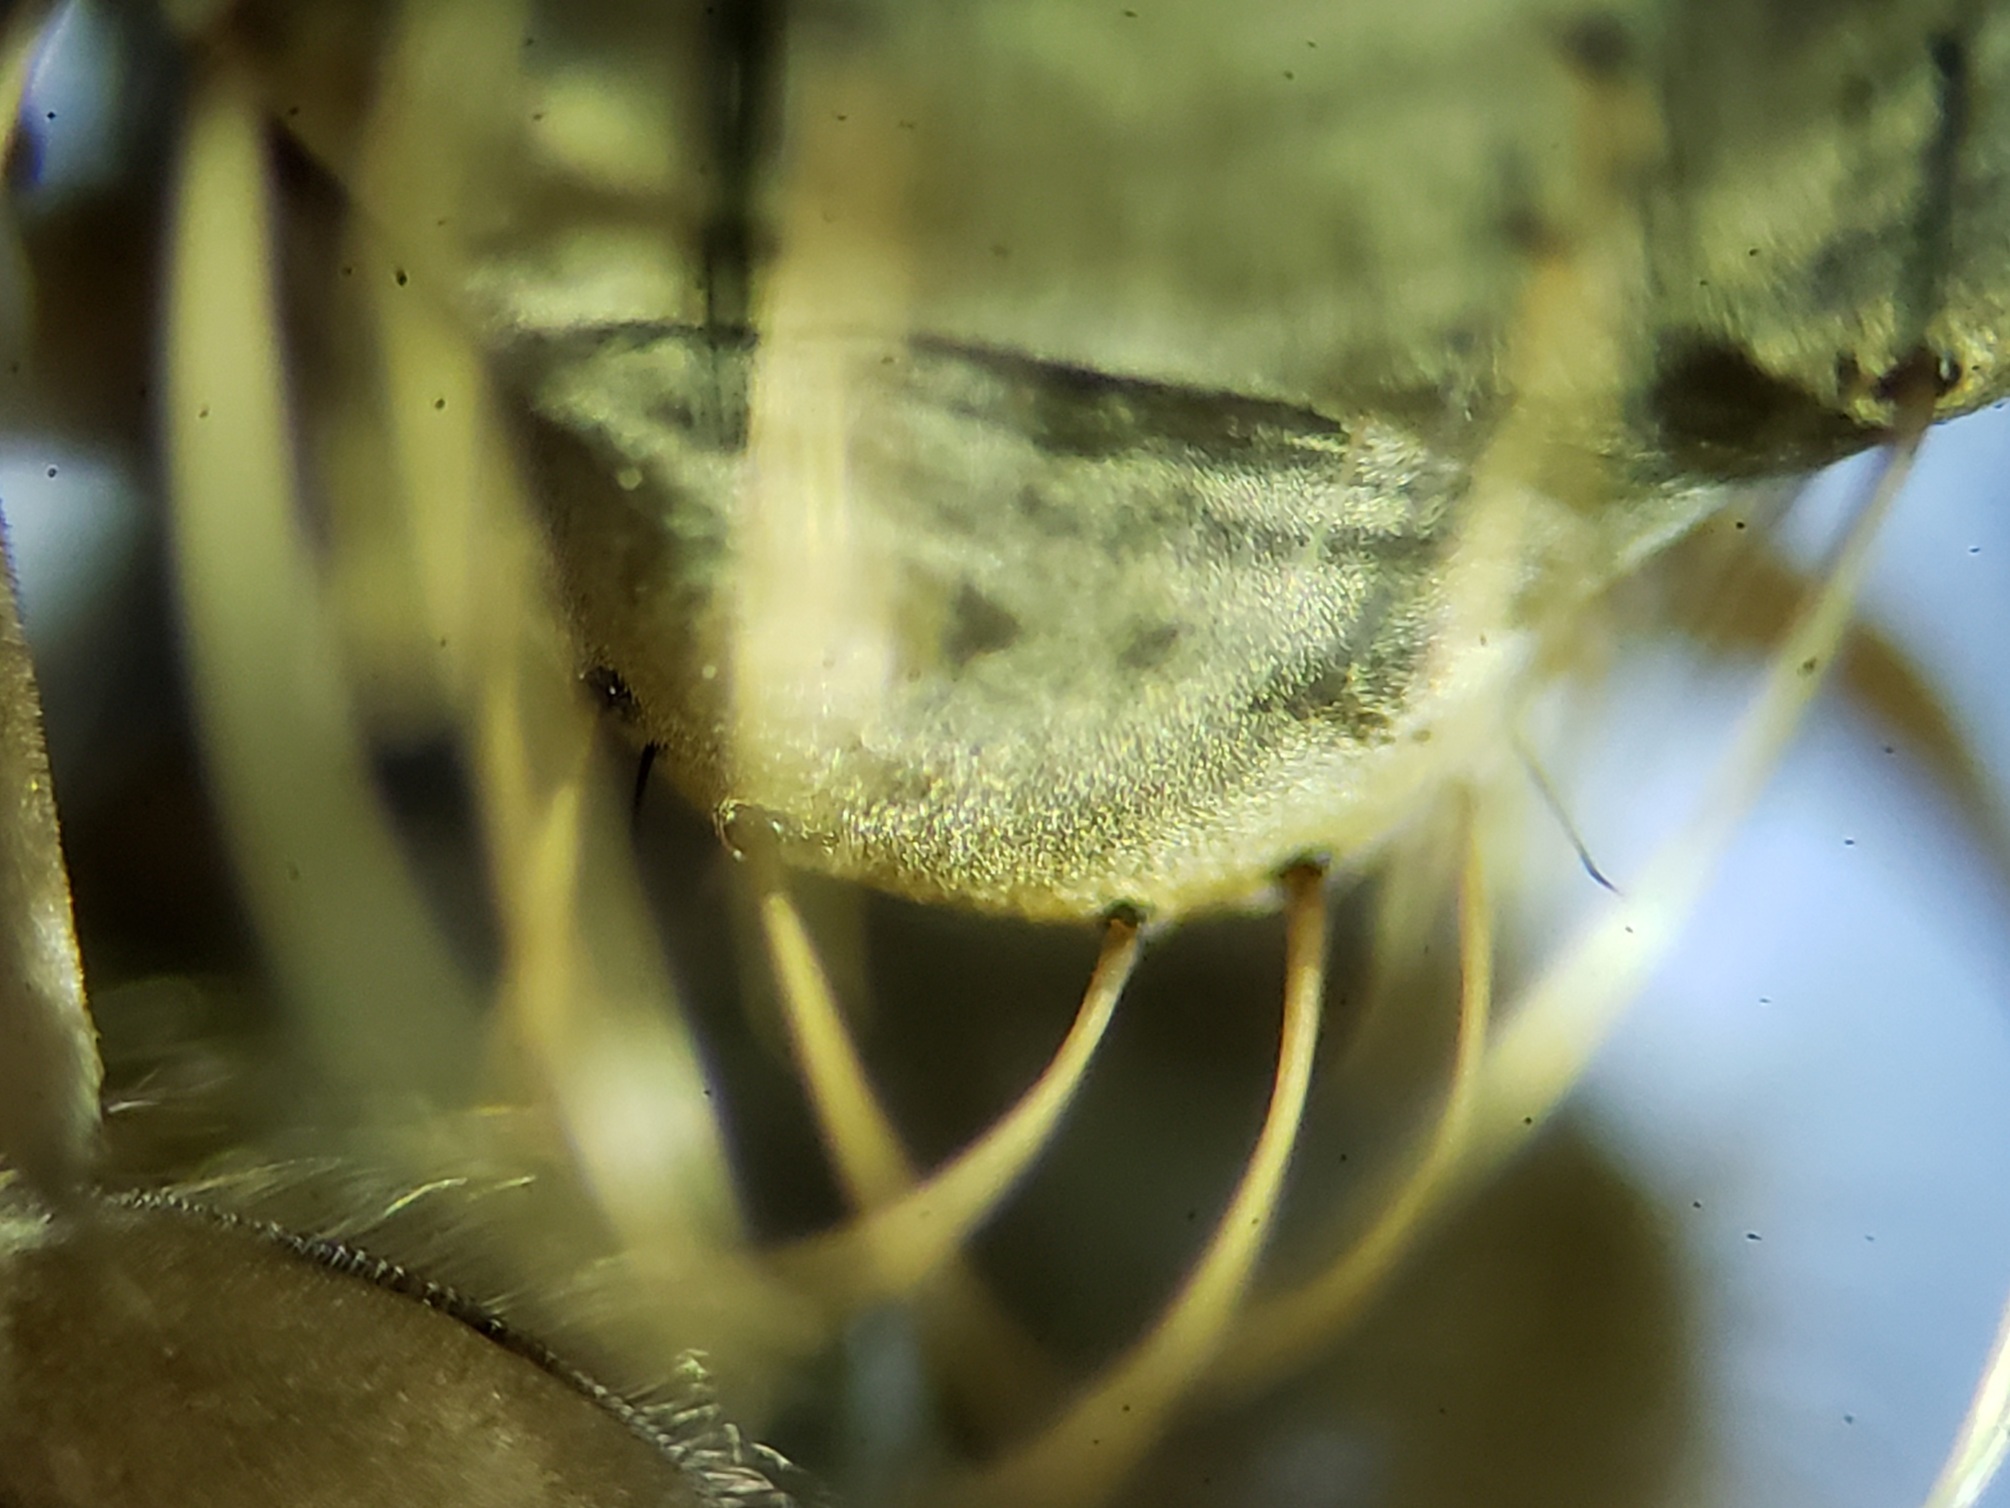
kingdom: Animalia
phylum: Arthropoda
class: Insecta
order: Diptera
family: Asilidae
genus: Scleropogon
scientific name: Scleropogon floridensis
